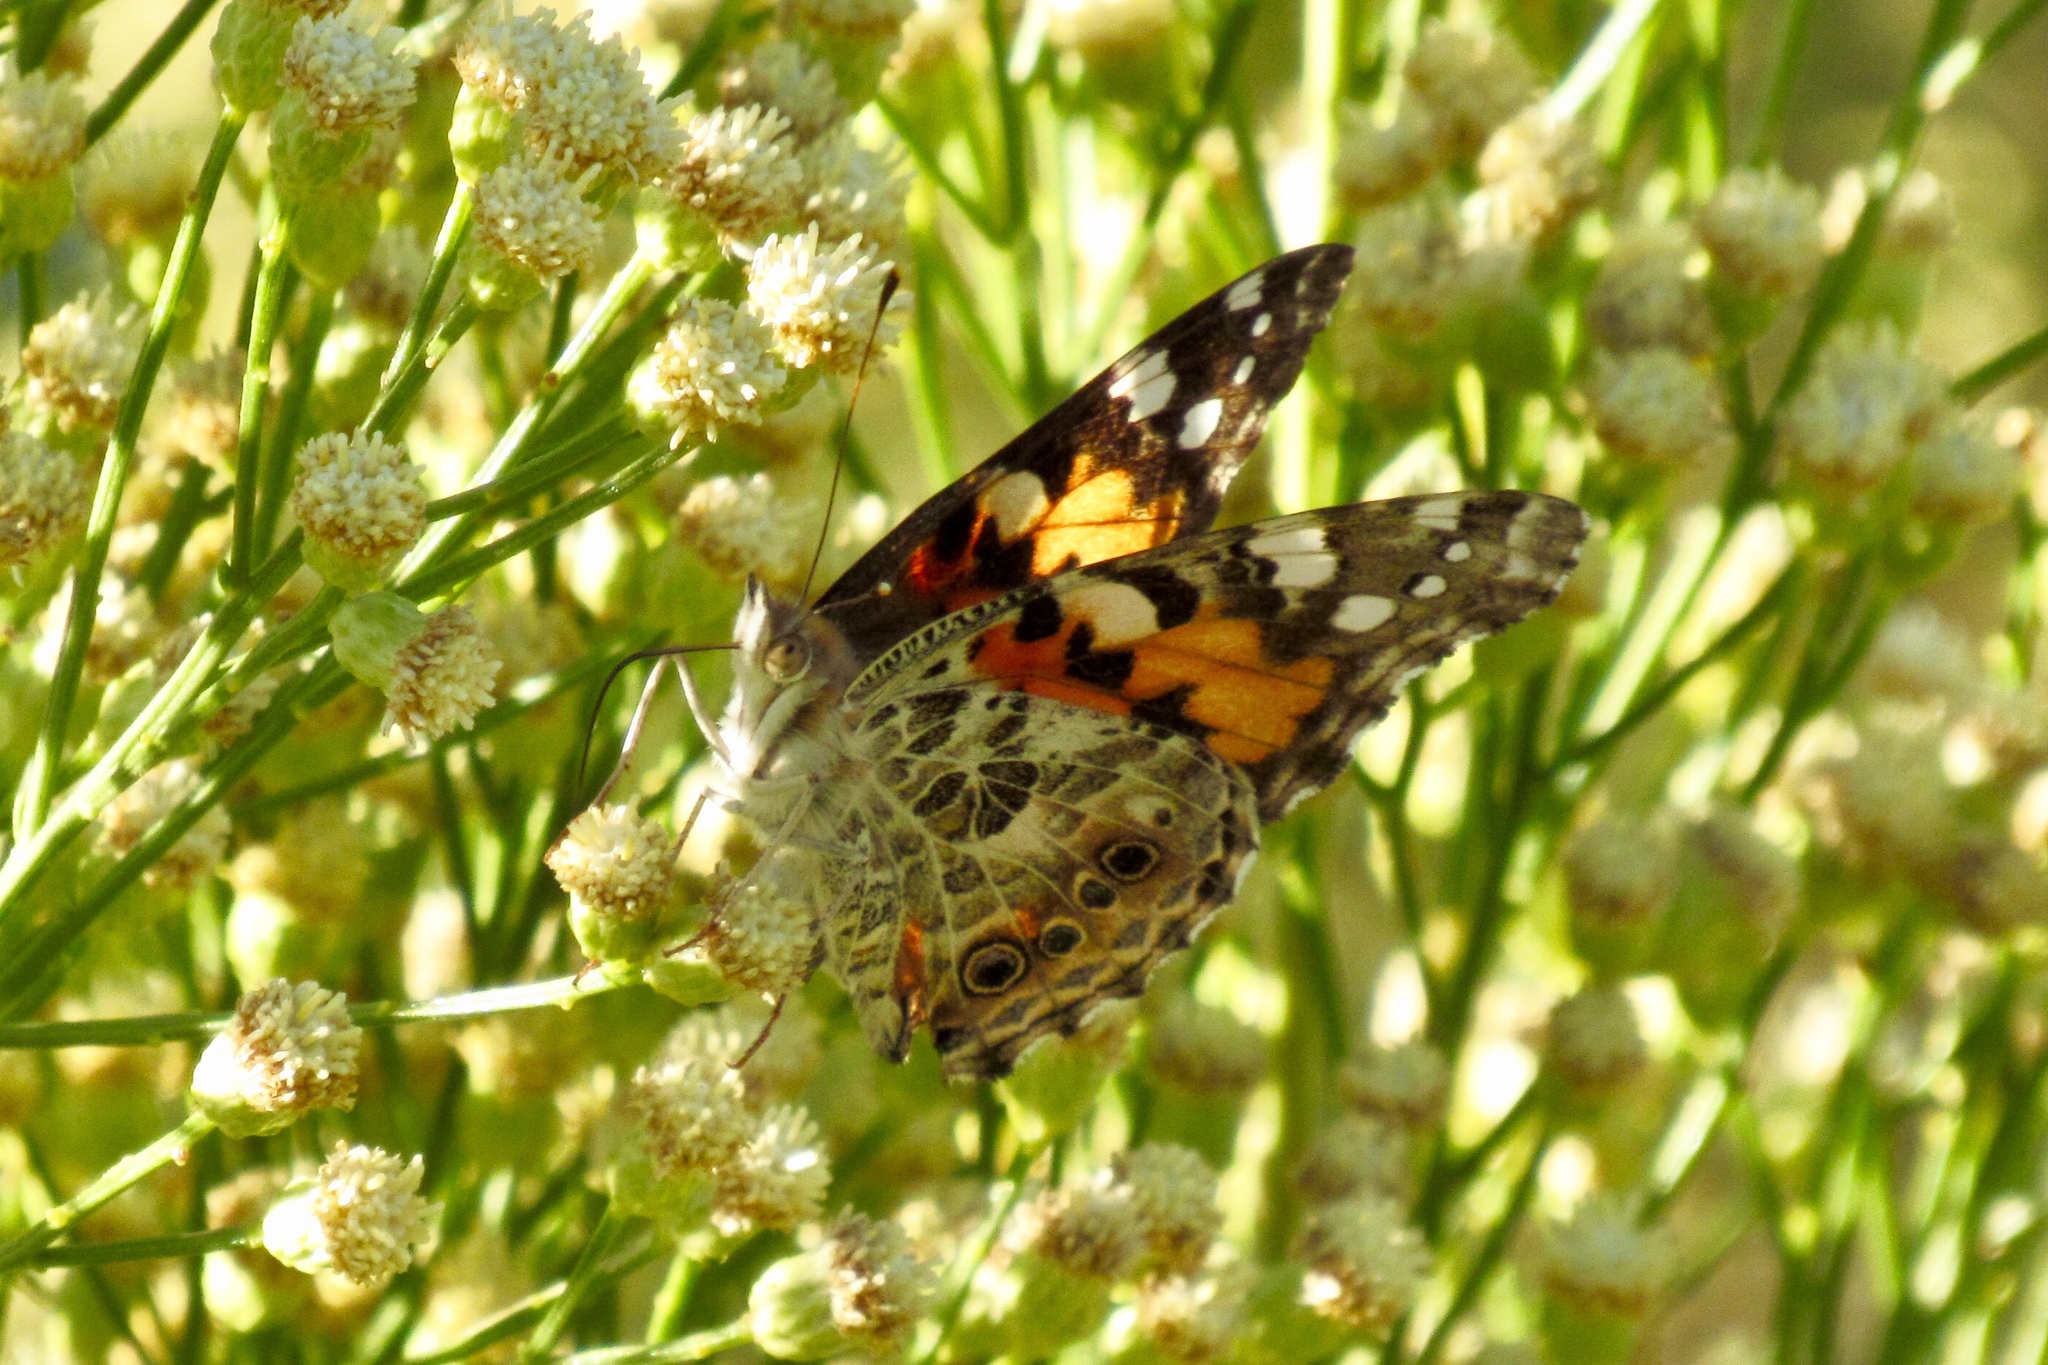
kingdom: Animalia
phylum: Arthropoda
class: Insecta
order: Lepidoptera
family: Nymphalidae
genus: Vanessa
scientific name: Vanessa cardui
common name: Painted lady
